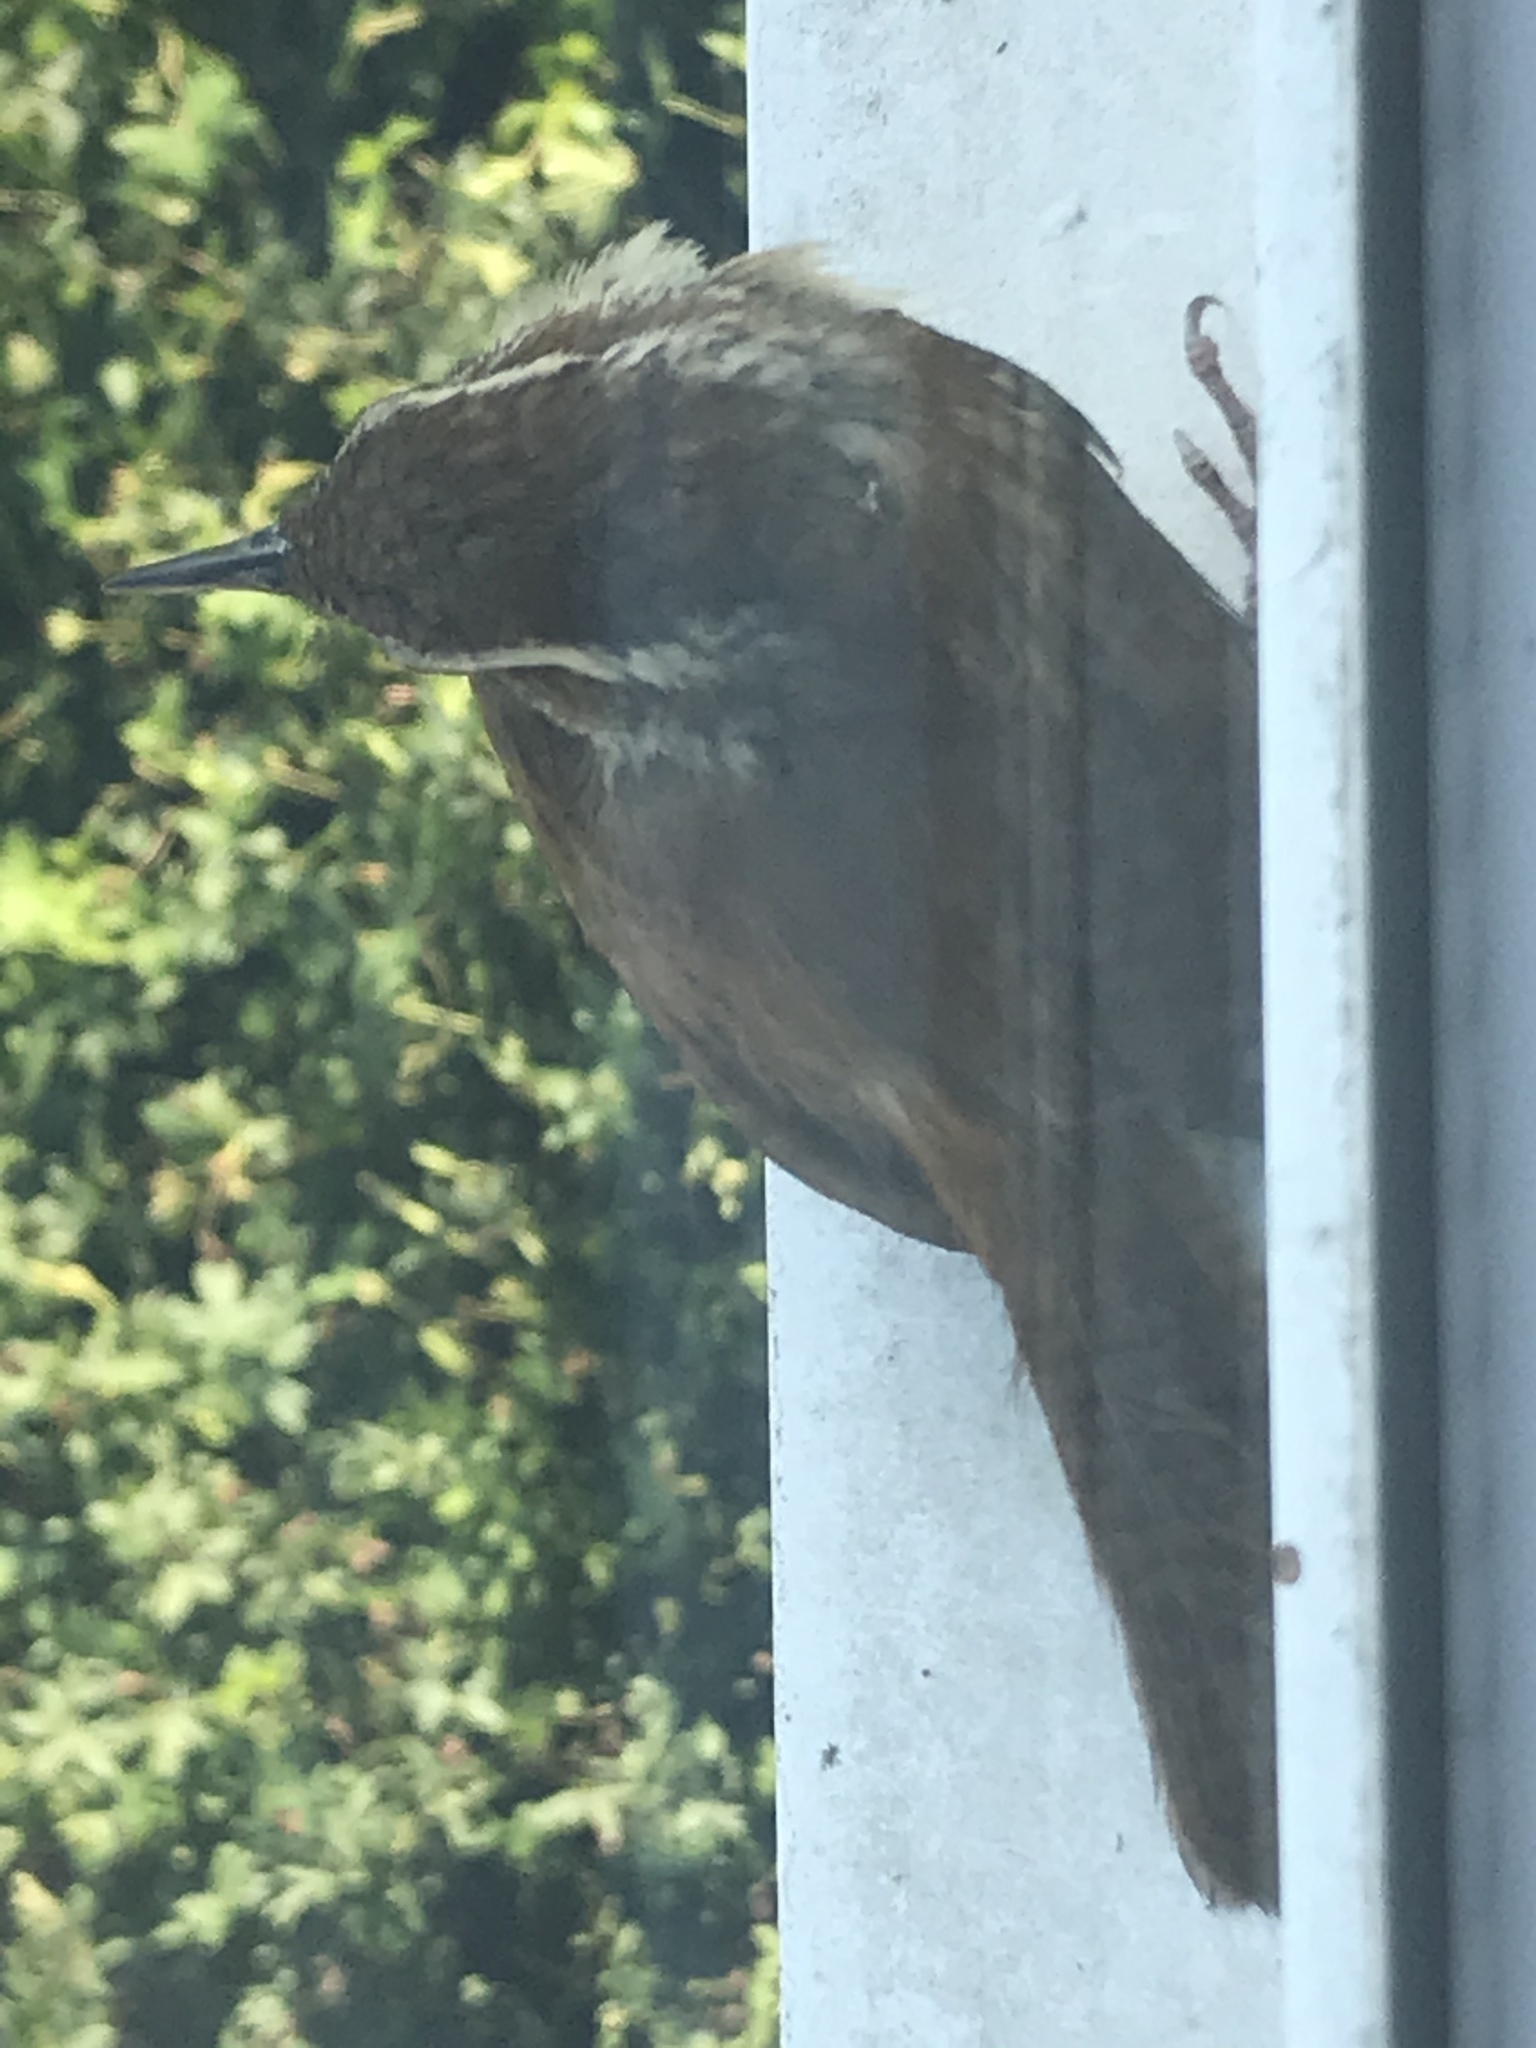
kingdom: Animalia
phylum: Chordata
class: Aves
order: Passeriformes
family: Troglodytidae
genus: Thryothorus
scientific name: Thryothorus ludovicianus
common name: Carolina wren
